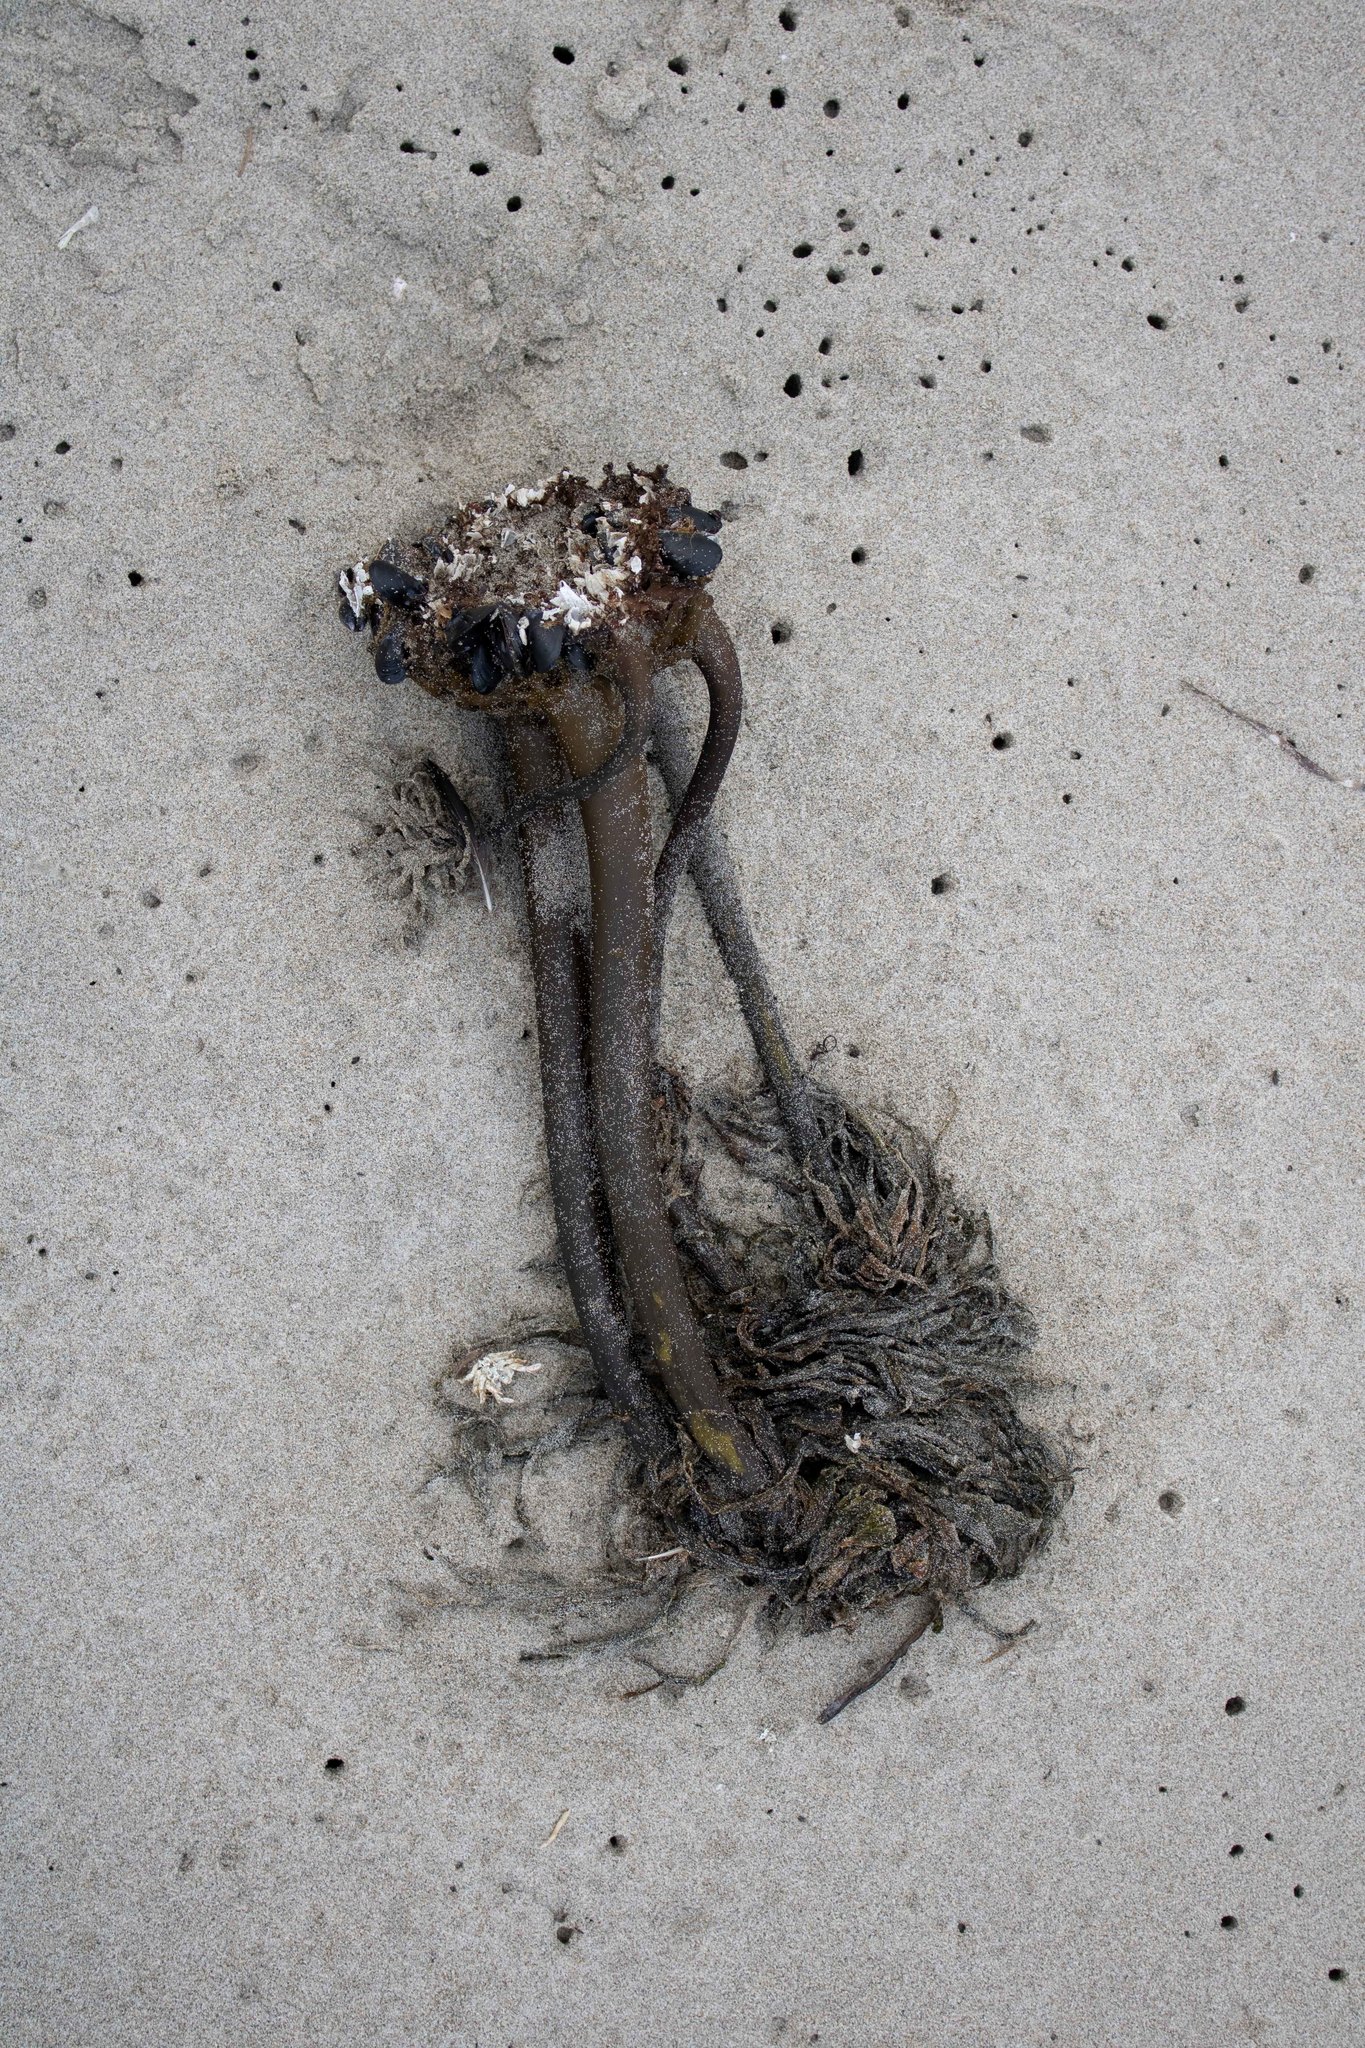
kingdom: Chromista
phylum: Ochrophyta
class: Phaeophyceae
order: Laminariales
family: Laminariaceae
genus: Postelsia
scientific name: Postelsia palmiformis
